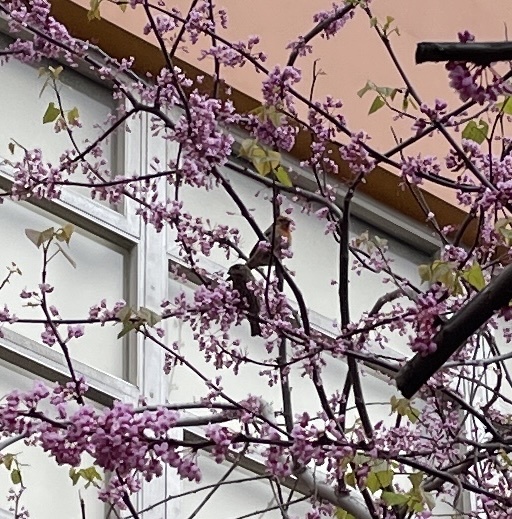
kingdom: Animalia
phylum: Chordata
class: Aves
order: Passeriformes
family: Fringillidae
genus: Haemorhous
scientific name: Haemorhous mexicanus
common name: House finch
